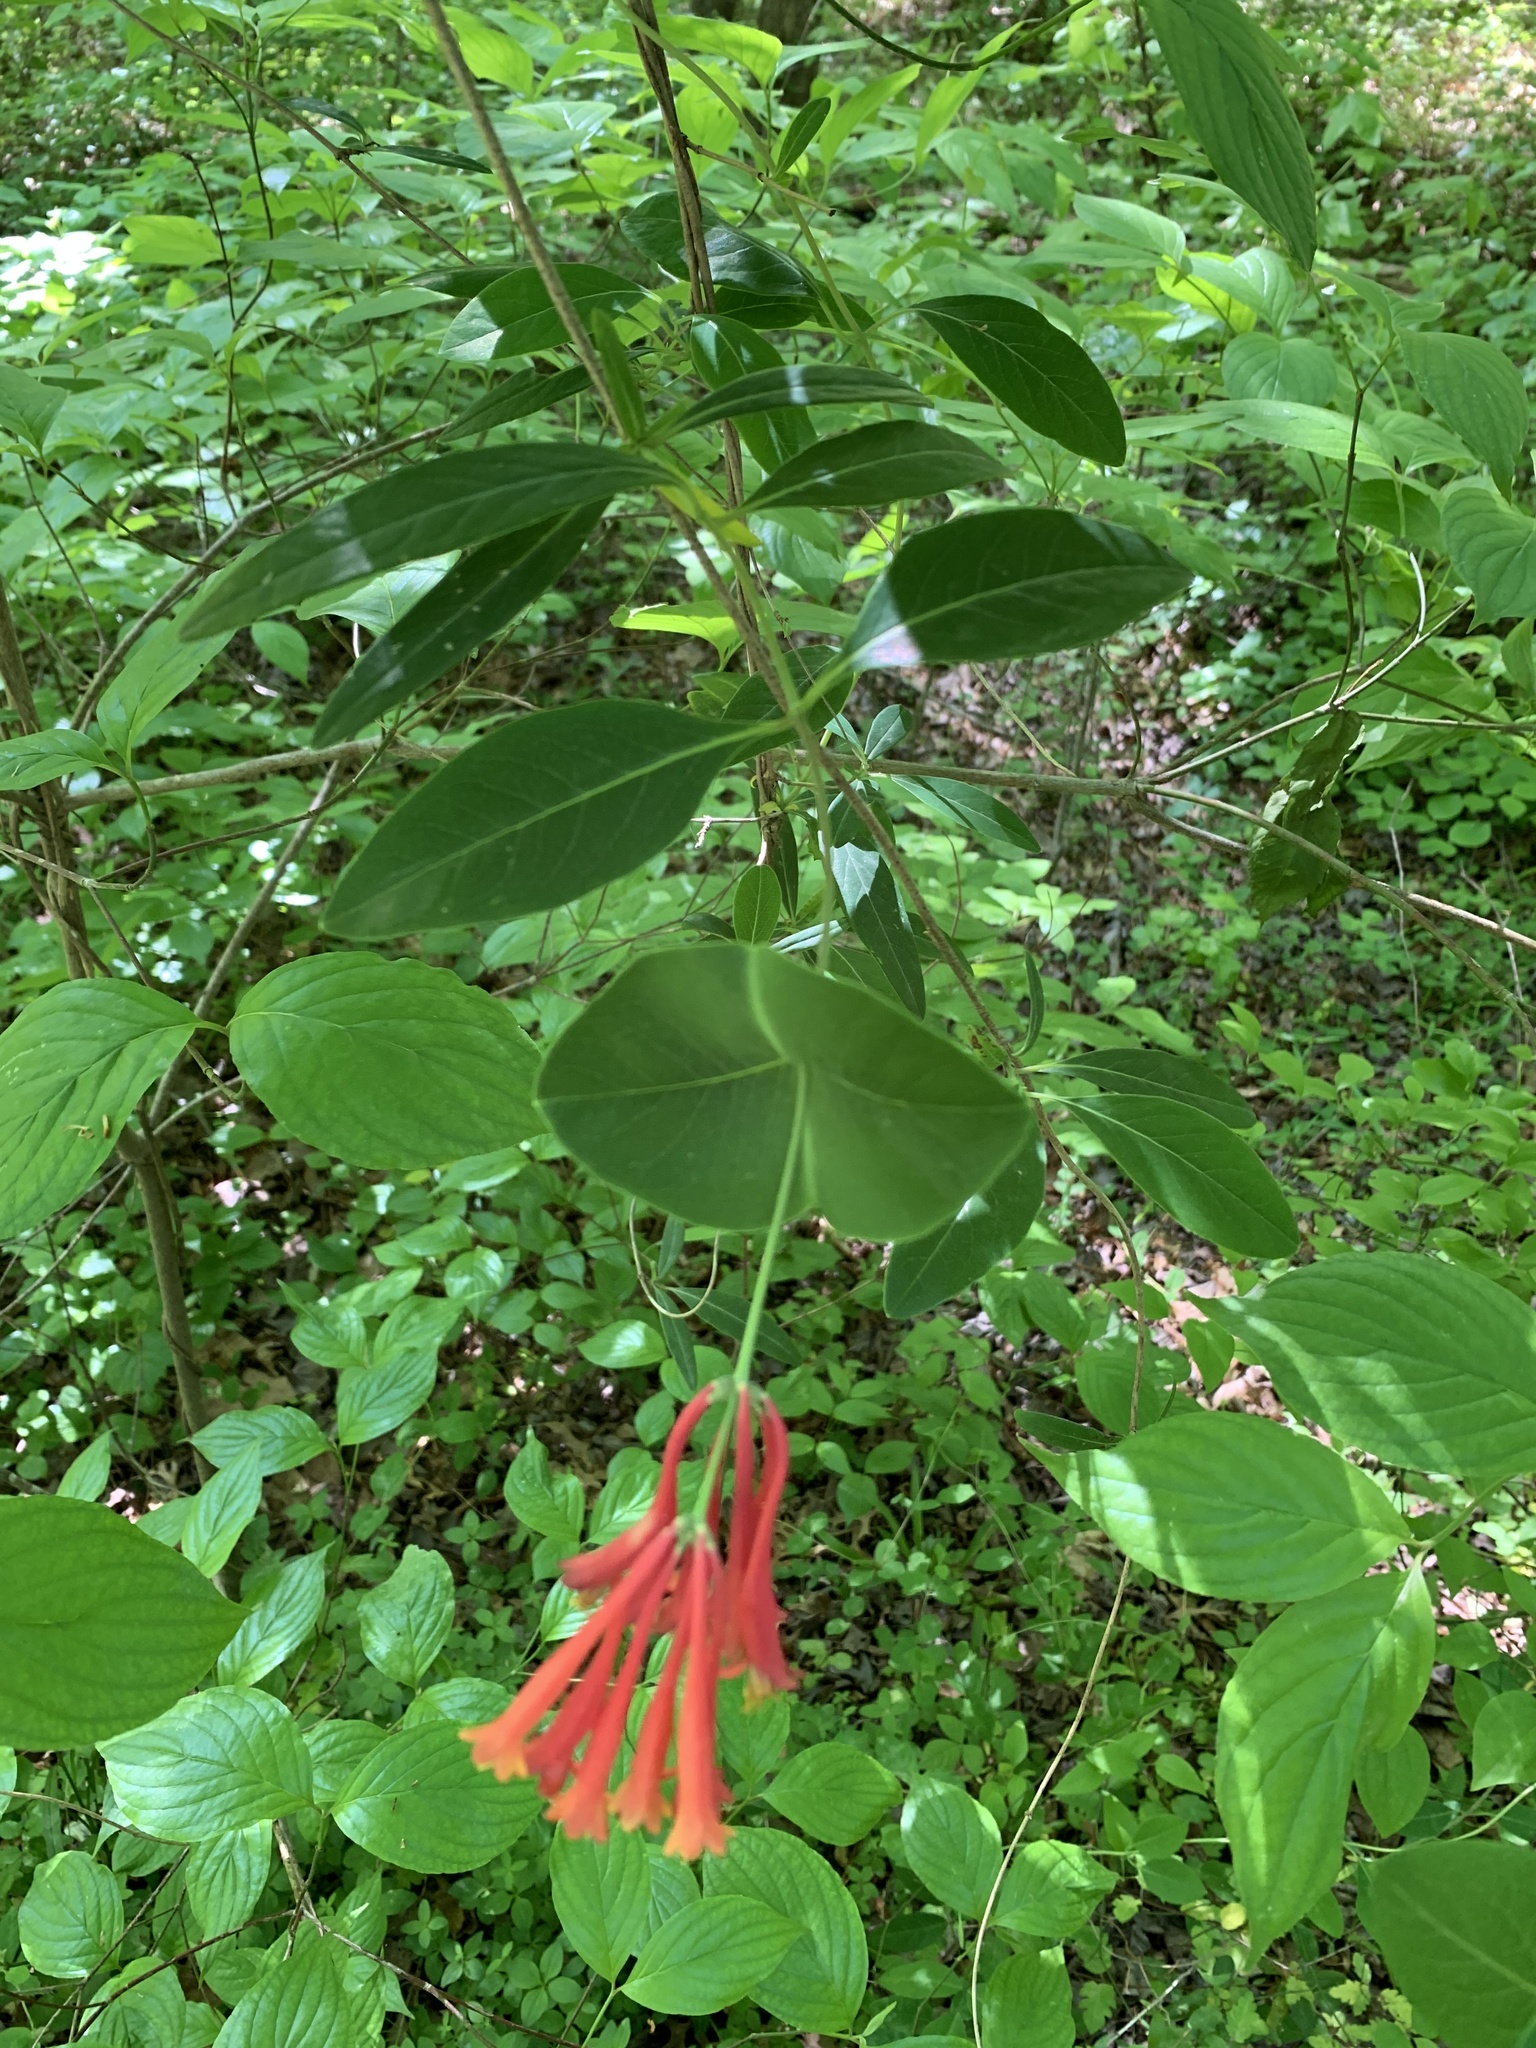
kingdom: Plantae
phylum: Tracheophyta
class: Magnoliopsida
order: Dipsacales
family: Caprifoliaceae
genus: Lonicera
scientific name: Lonicera sempervirens
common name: Coral honeysuckle
